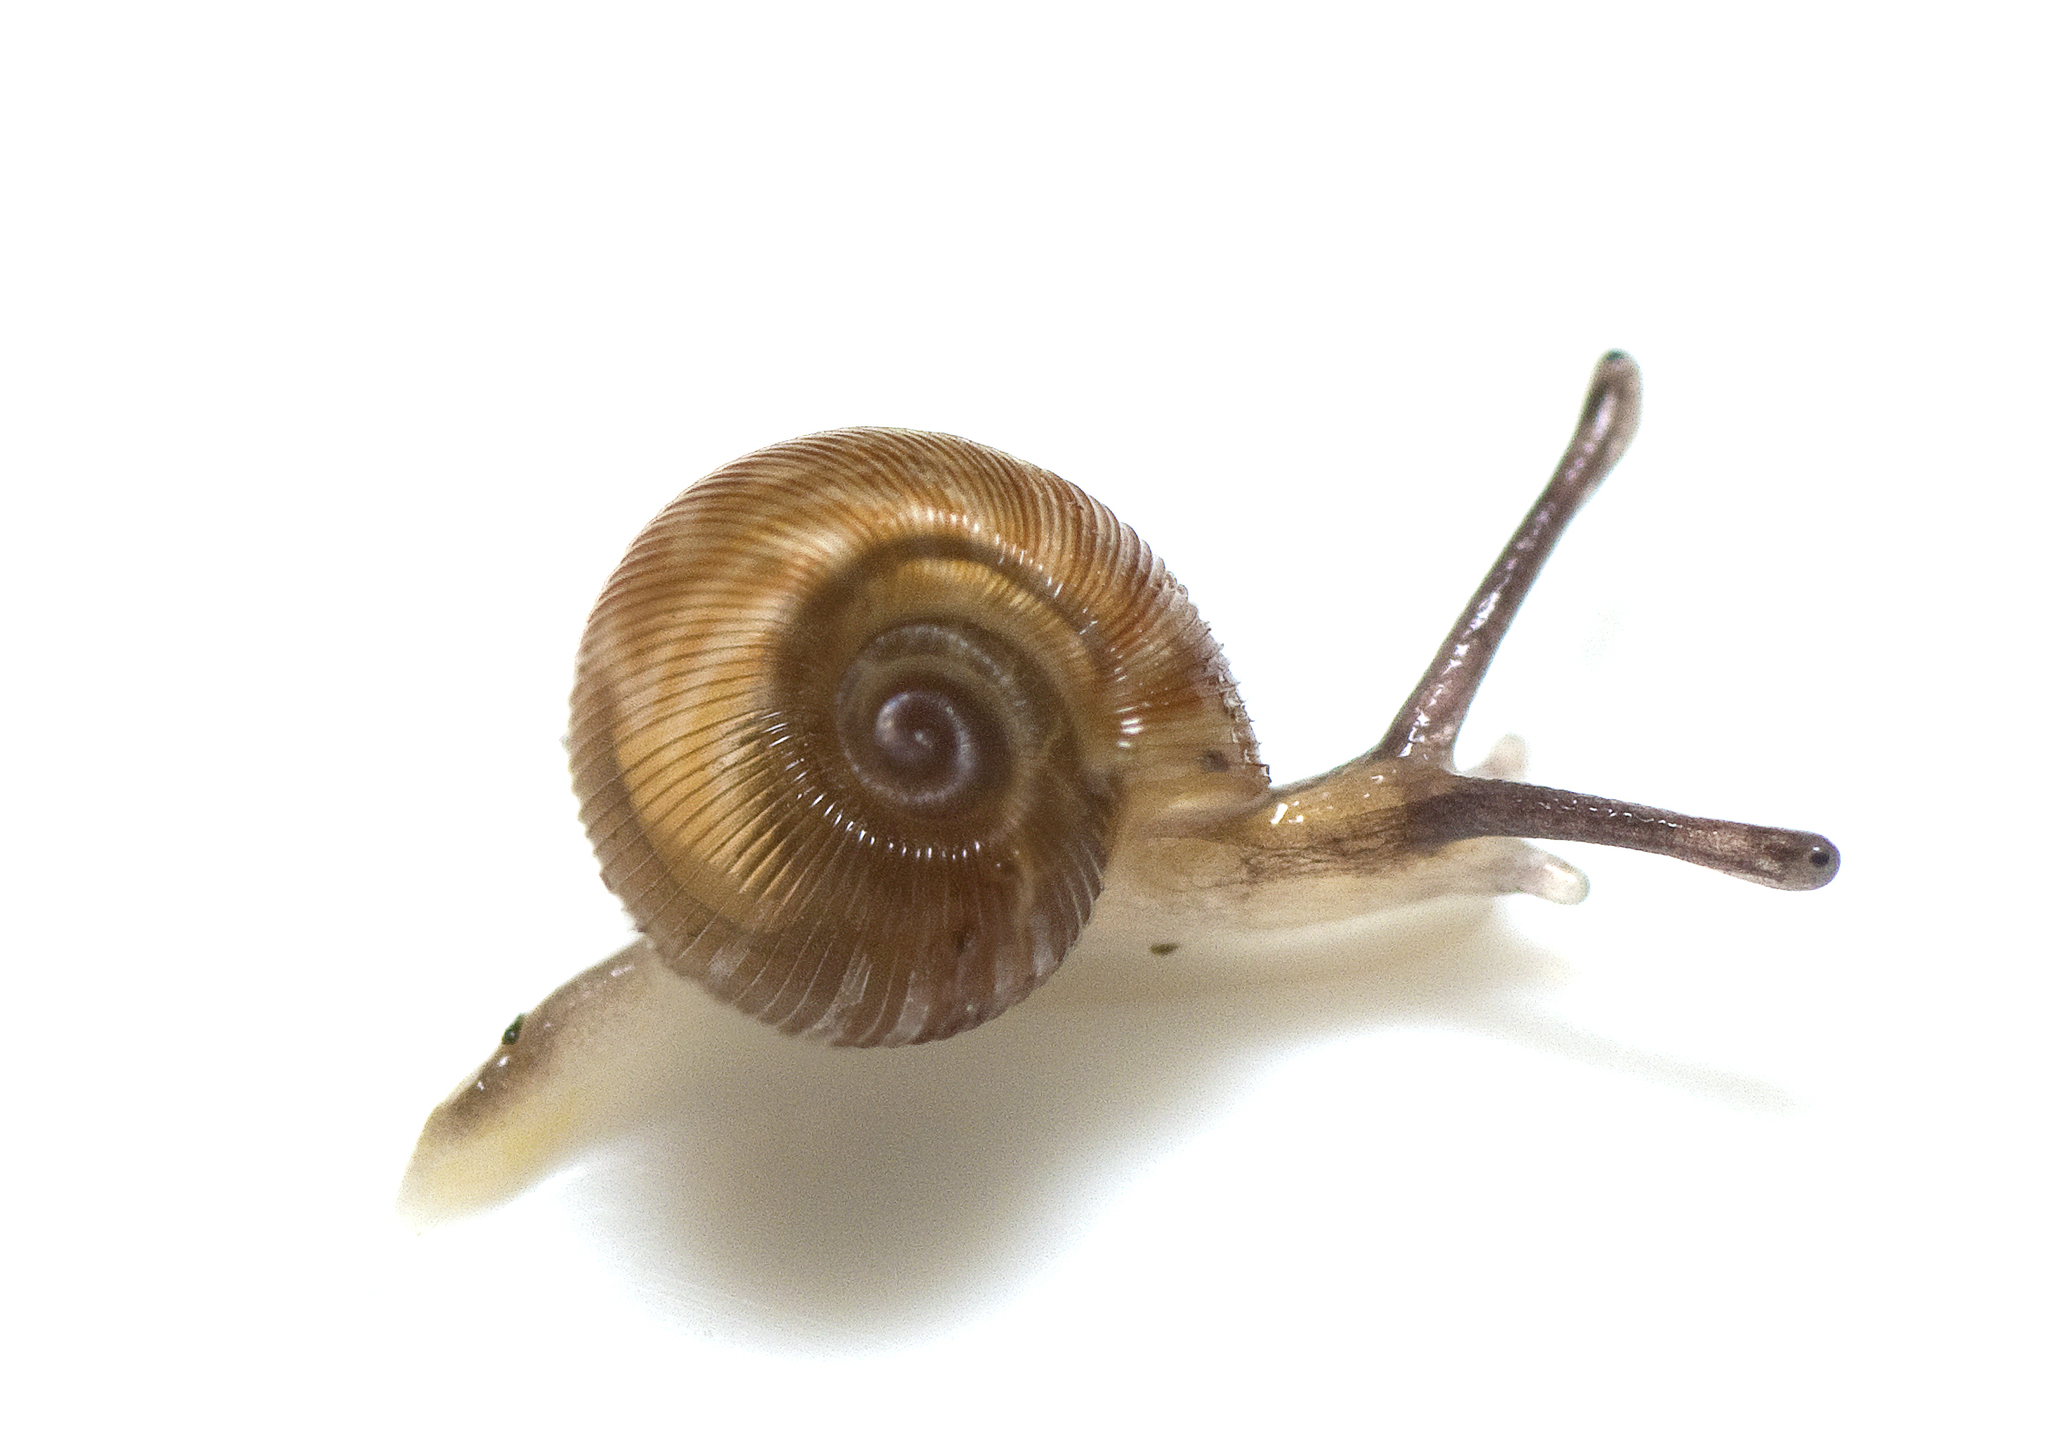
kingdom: Animalia
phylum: Mollusca
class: Gastropoda
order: Stylommatophora
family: Charopidae
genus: Nautiliropa
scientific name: Nautiliropa omicron
